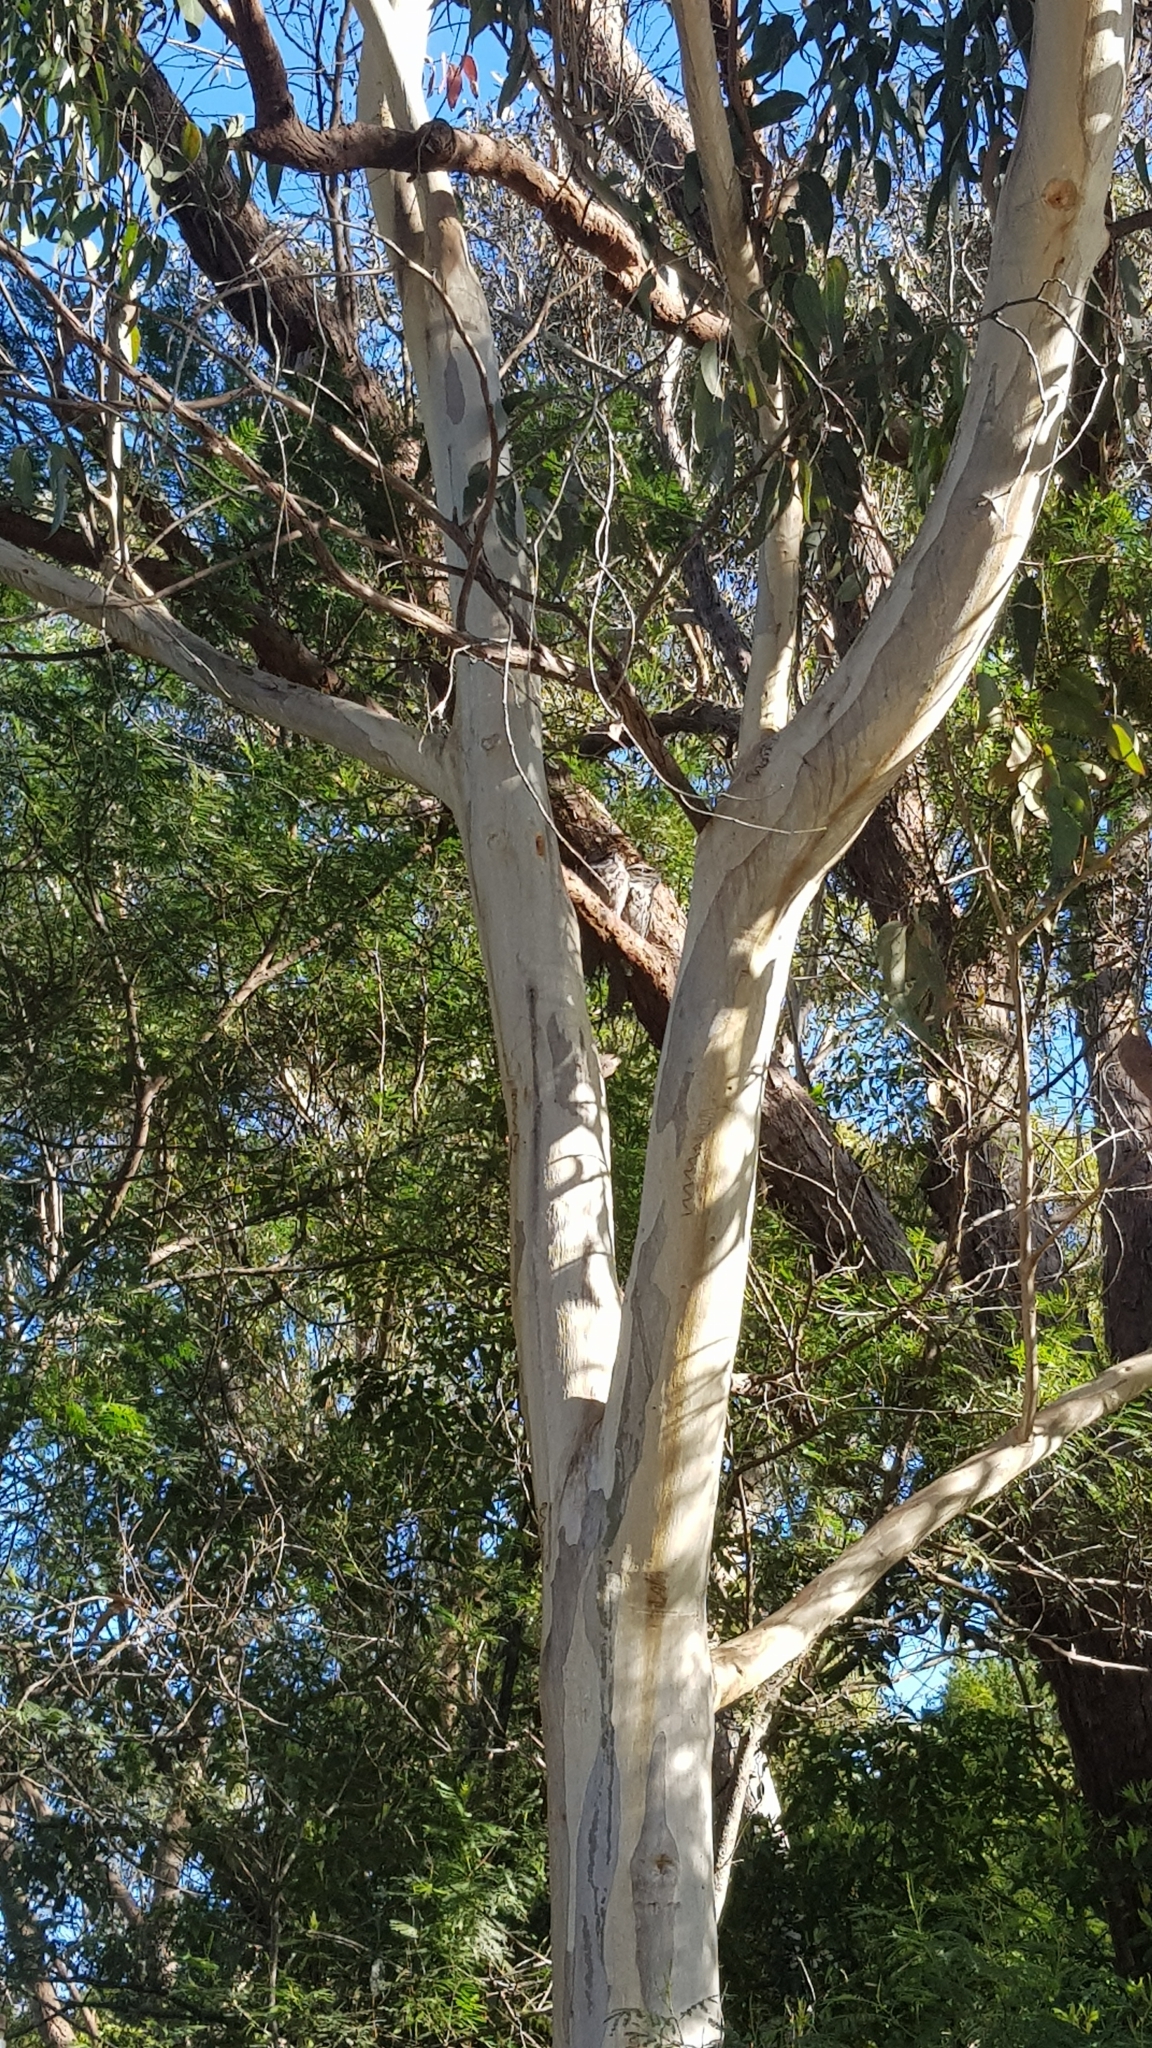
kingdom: Animalia
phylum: Chordata
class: Aves
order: Caprimulgiformes
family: Podargidae
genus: Podargus
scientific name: Podargus strigoides
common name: Tawny frogmouth
